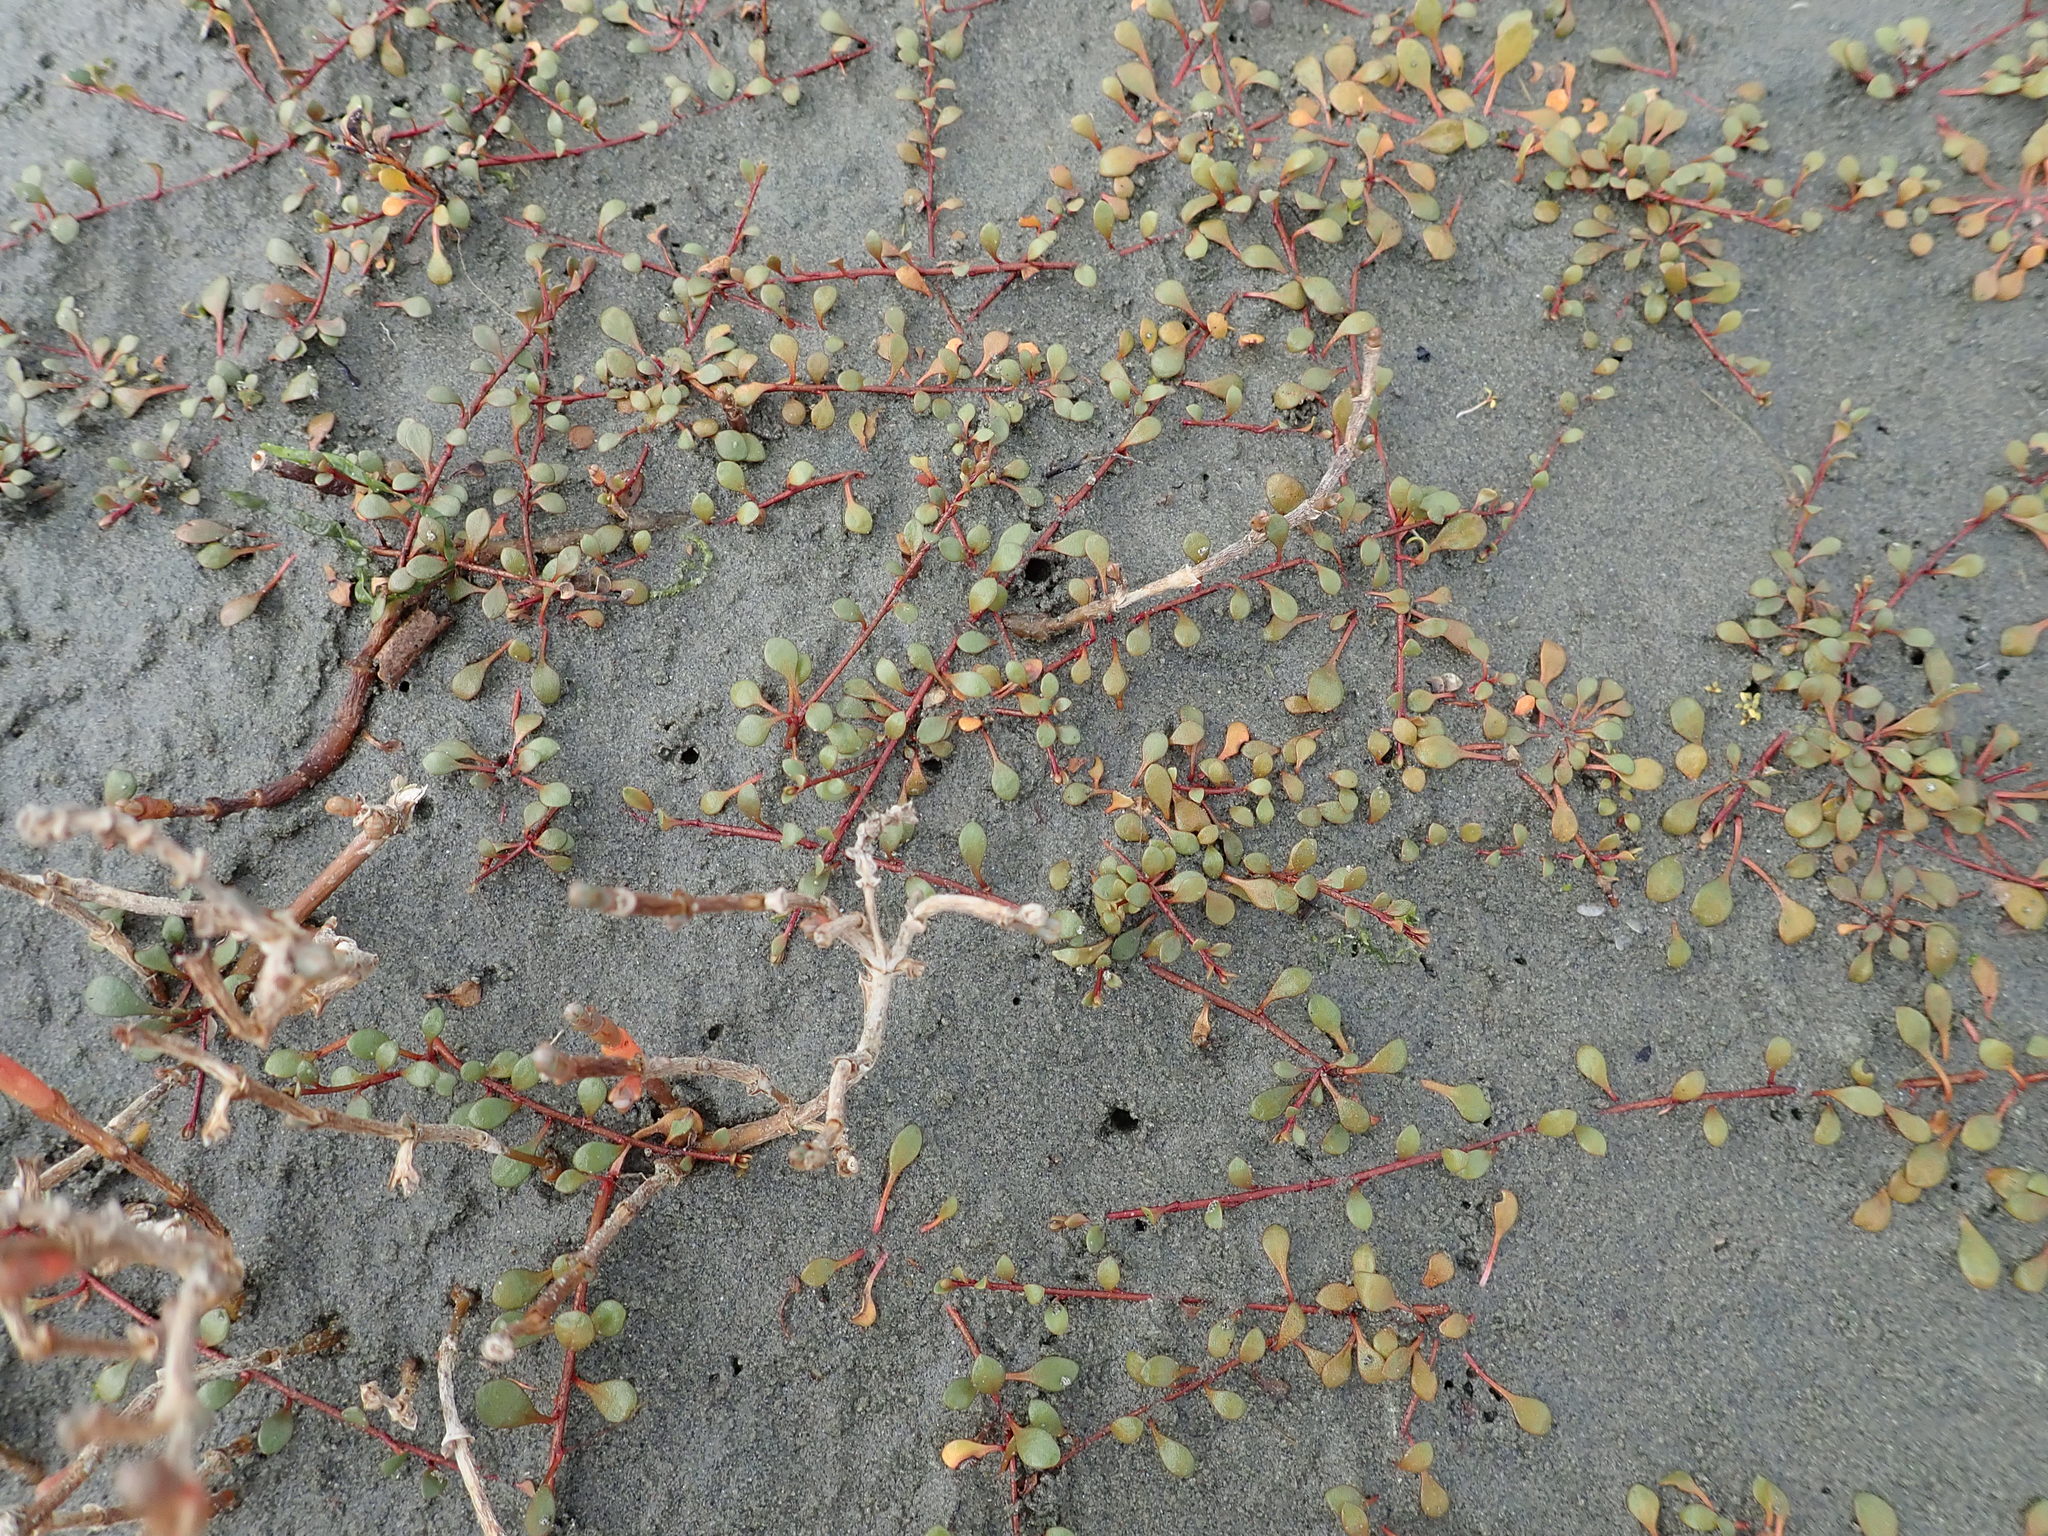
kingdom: Plantae
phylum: Tracheophyta
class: Magnoliopsida
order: Ericales
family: Primulaceae
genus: Samolus
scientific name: Samolus repens
